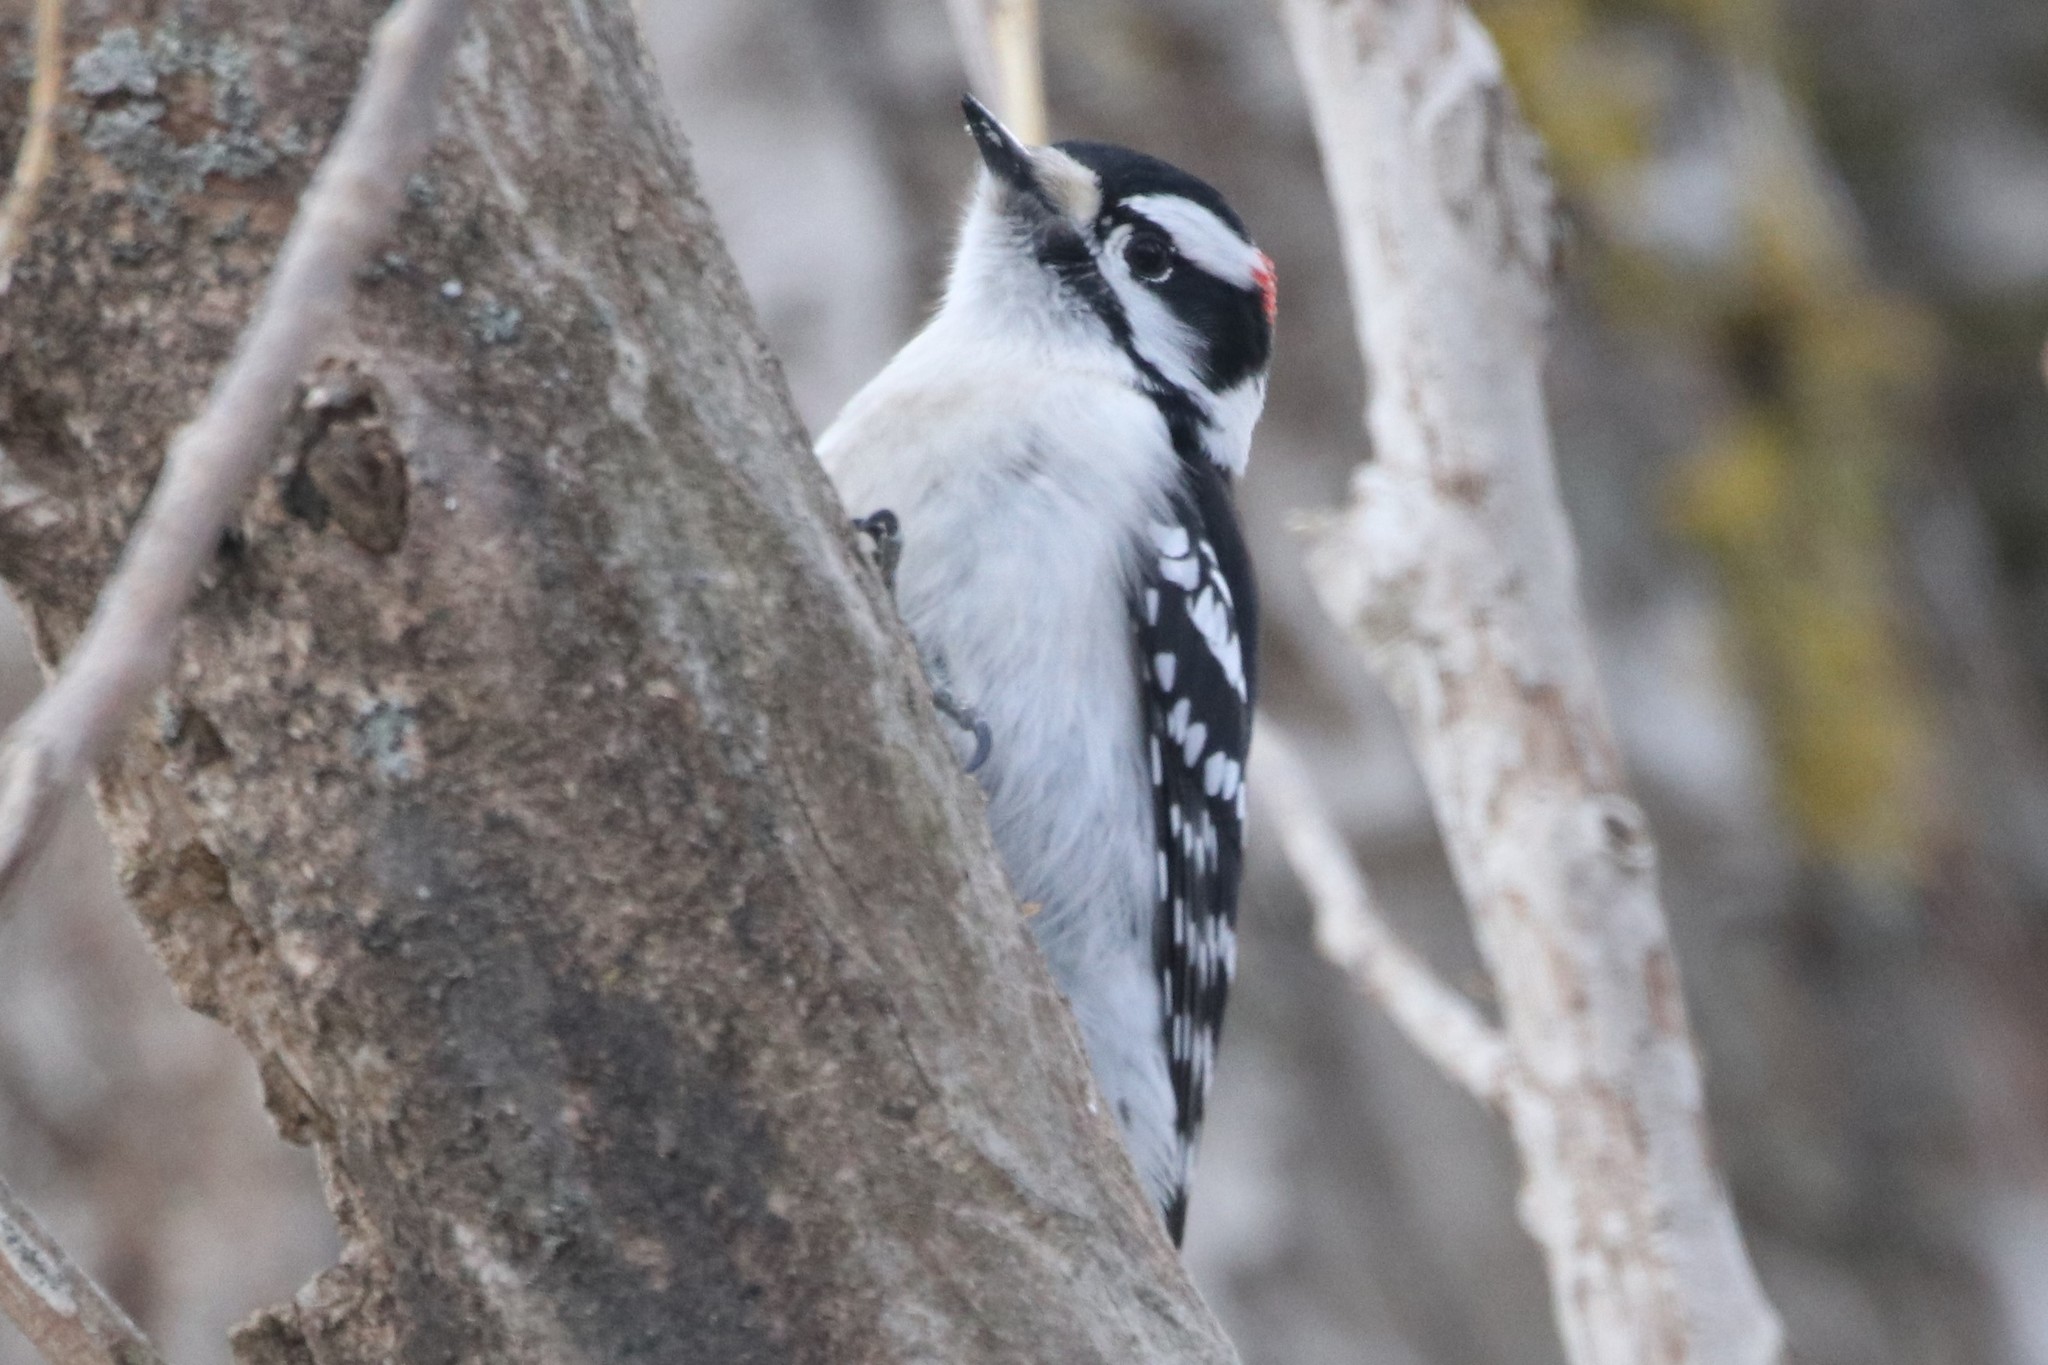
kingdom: Animalia
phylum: Chordata
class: Aves
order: Piciformes
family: Picidae
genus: Dryobates
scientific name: Dryobates pubescens
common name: Downy woodpecker
